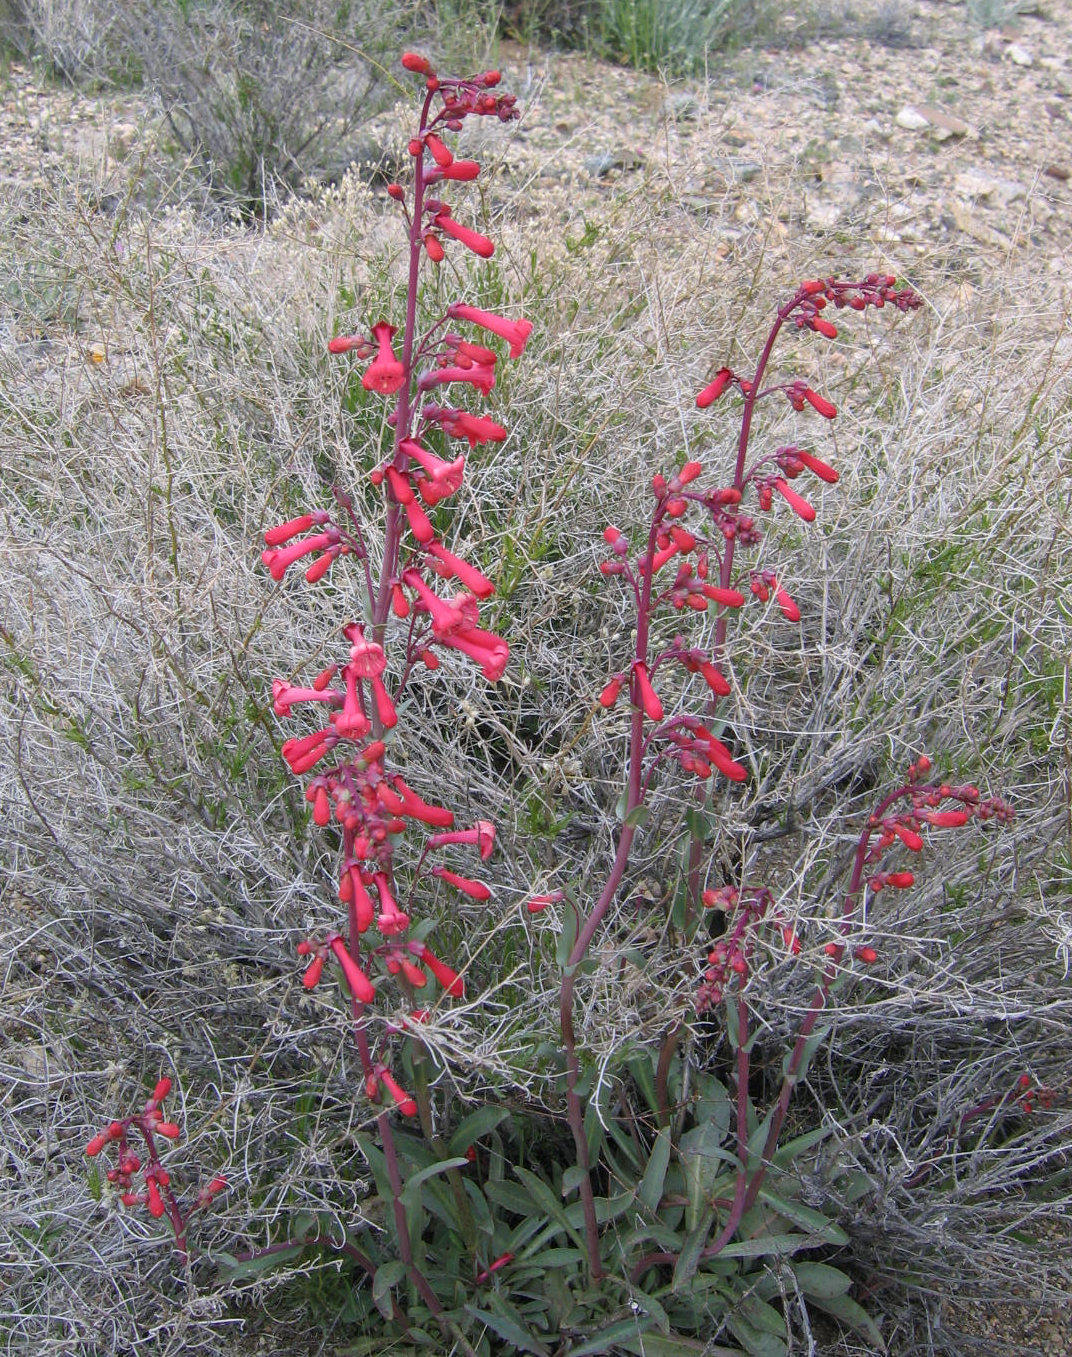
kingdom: Plantae
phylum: Tracheophyta
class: Magnoliopsida
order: Lamiales
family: Plantaginaceae
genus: Penstemon
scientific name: Penstemon utahensis
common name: Utah penstemon
